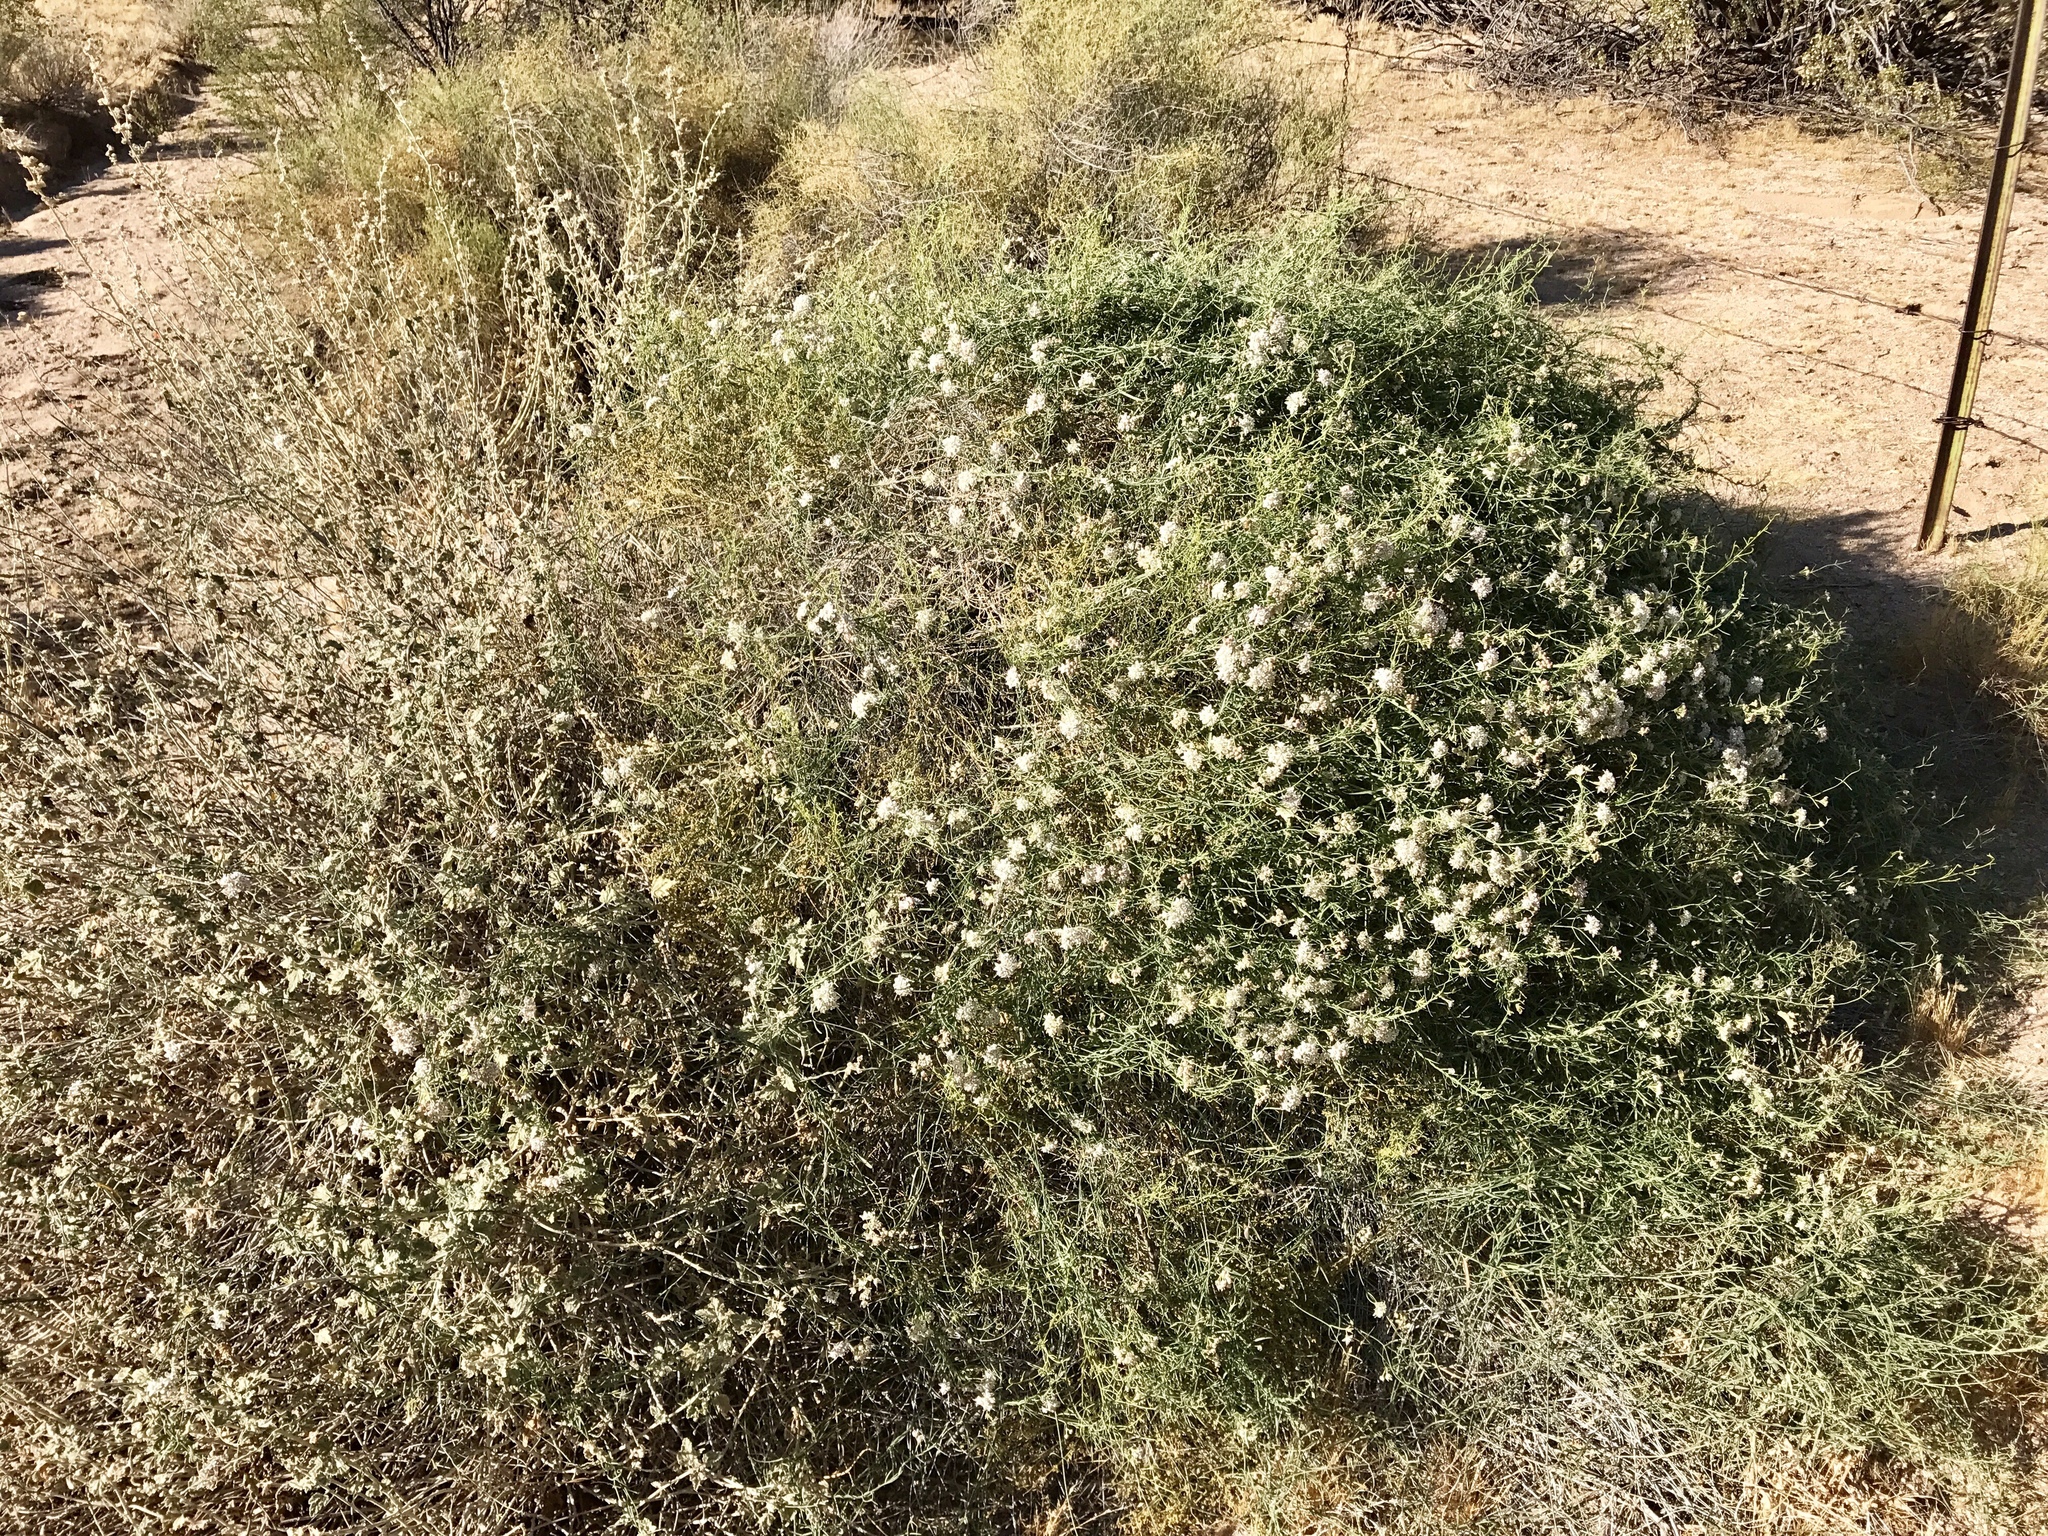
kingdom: Plantae
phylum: Tracheophyta
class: Magnoliopsida
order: Gentianales
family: Apocynaceae
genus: Funastrum
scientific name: Funastrum heterophyllum
